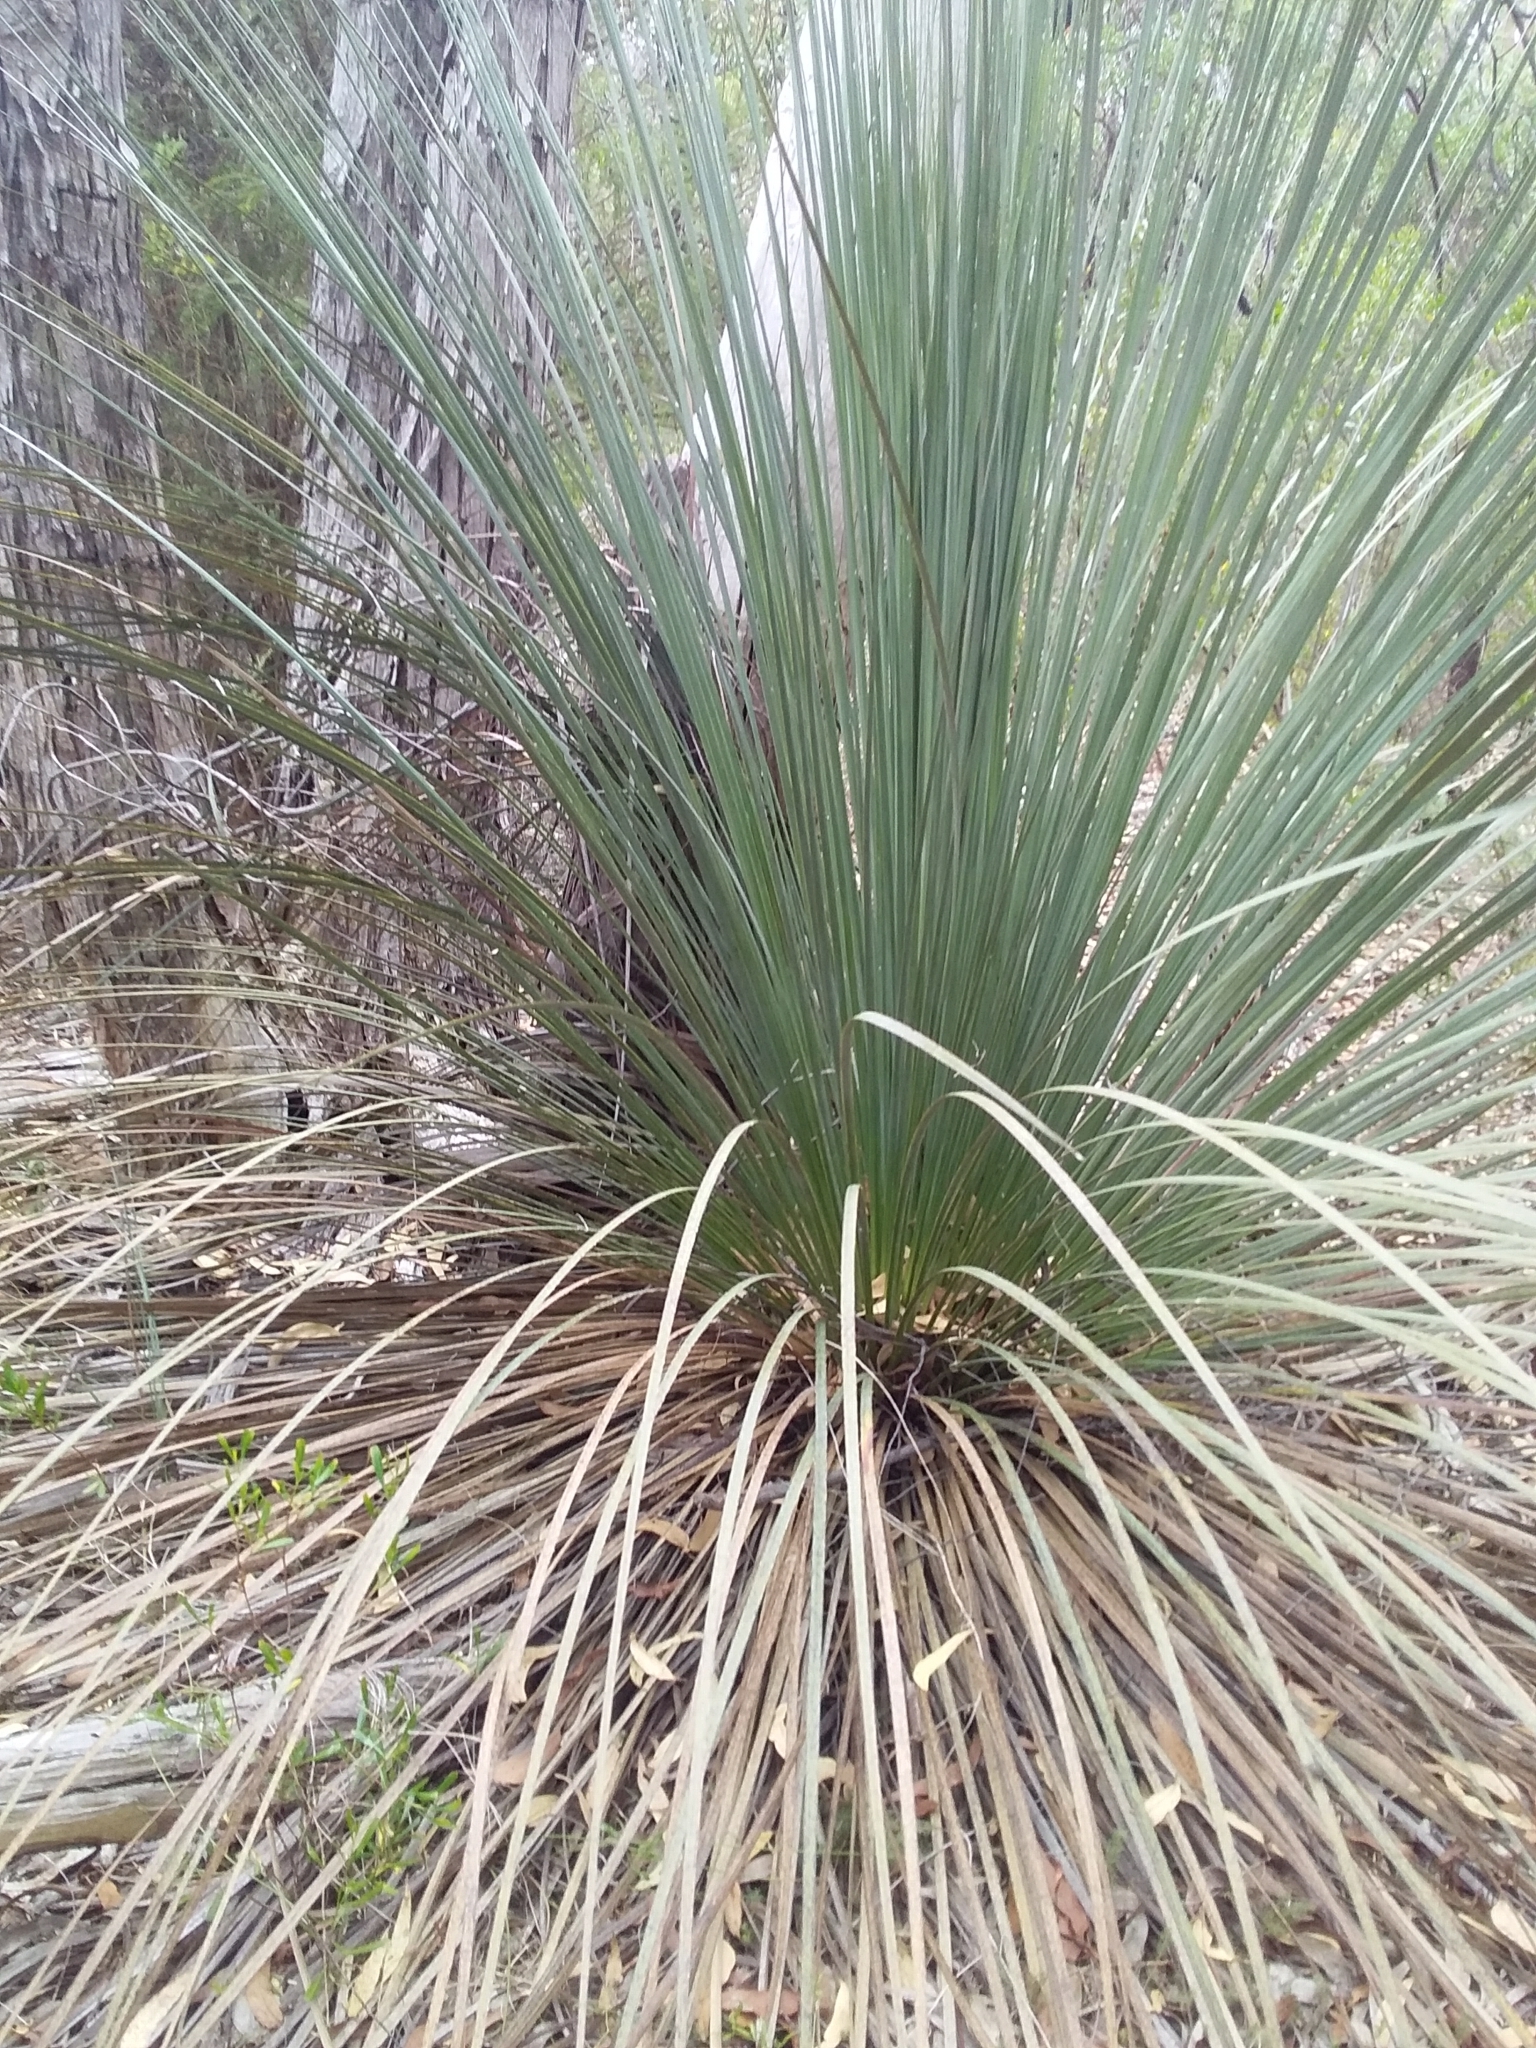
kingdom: Plantae
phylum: Tracheophyta
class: Liliopsida
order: Asparagales
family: Asphodelaceae
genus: Xanthorrhoea
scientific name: Xanthorrhoea semiplana
